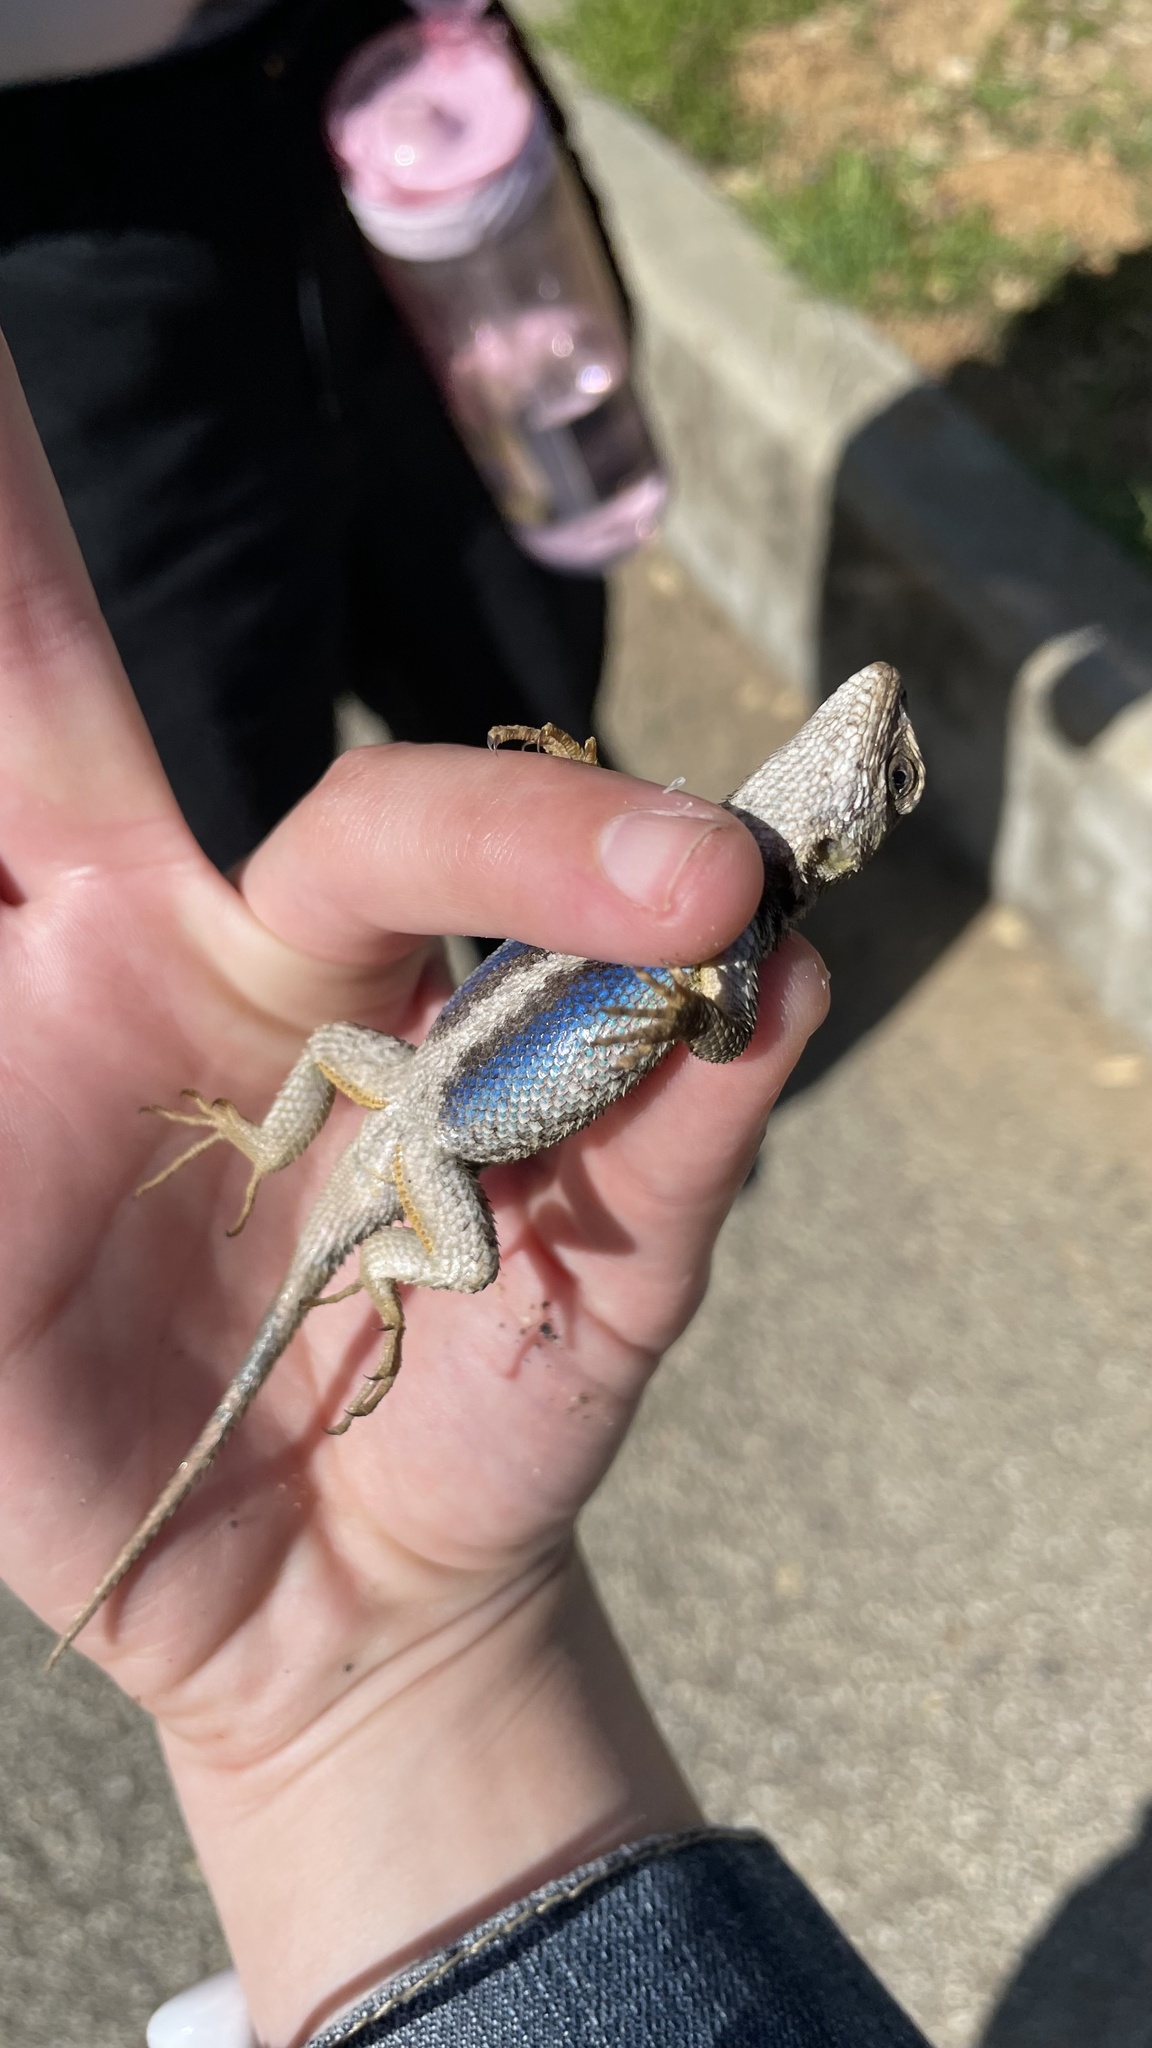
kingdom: Animalia
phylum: Chordata
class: Squamata
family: Phrynosomatidae
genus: Sceloporus
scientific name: Sceloporus occidentalis
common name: Western fence lizard
